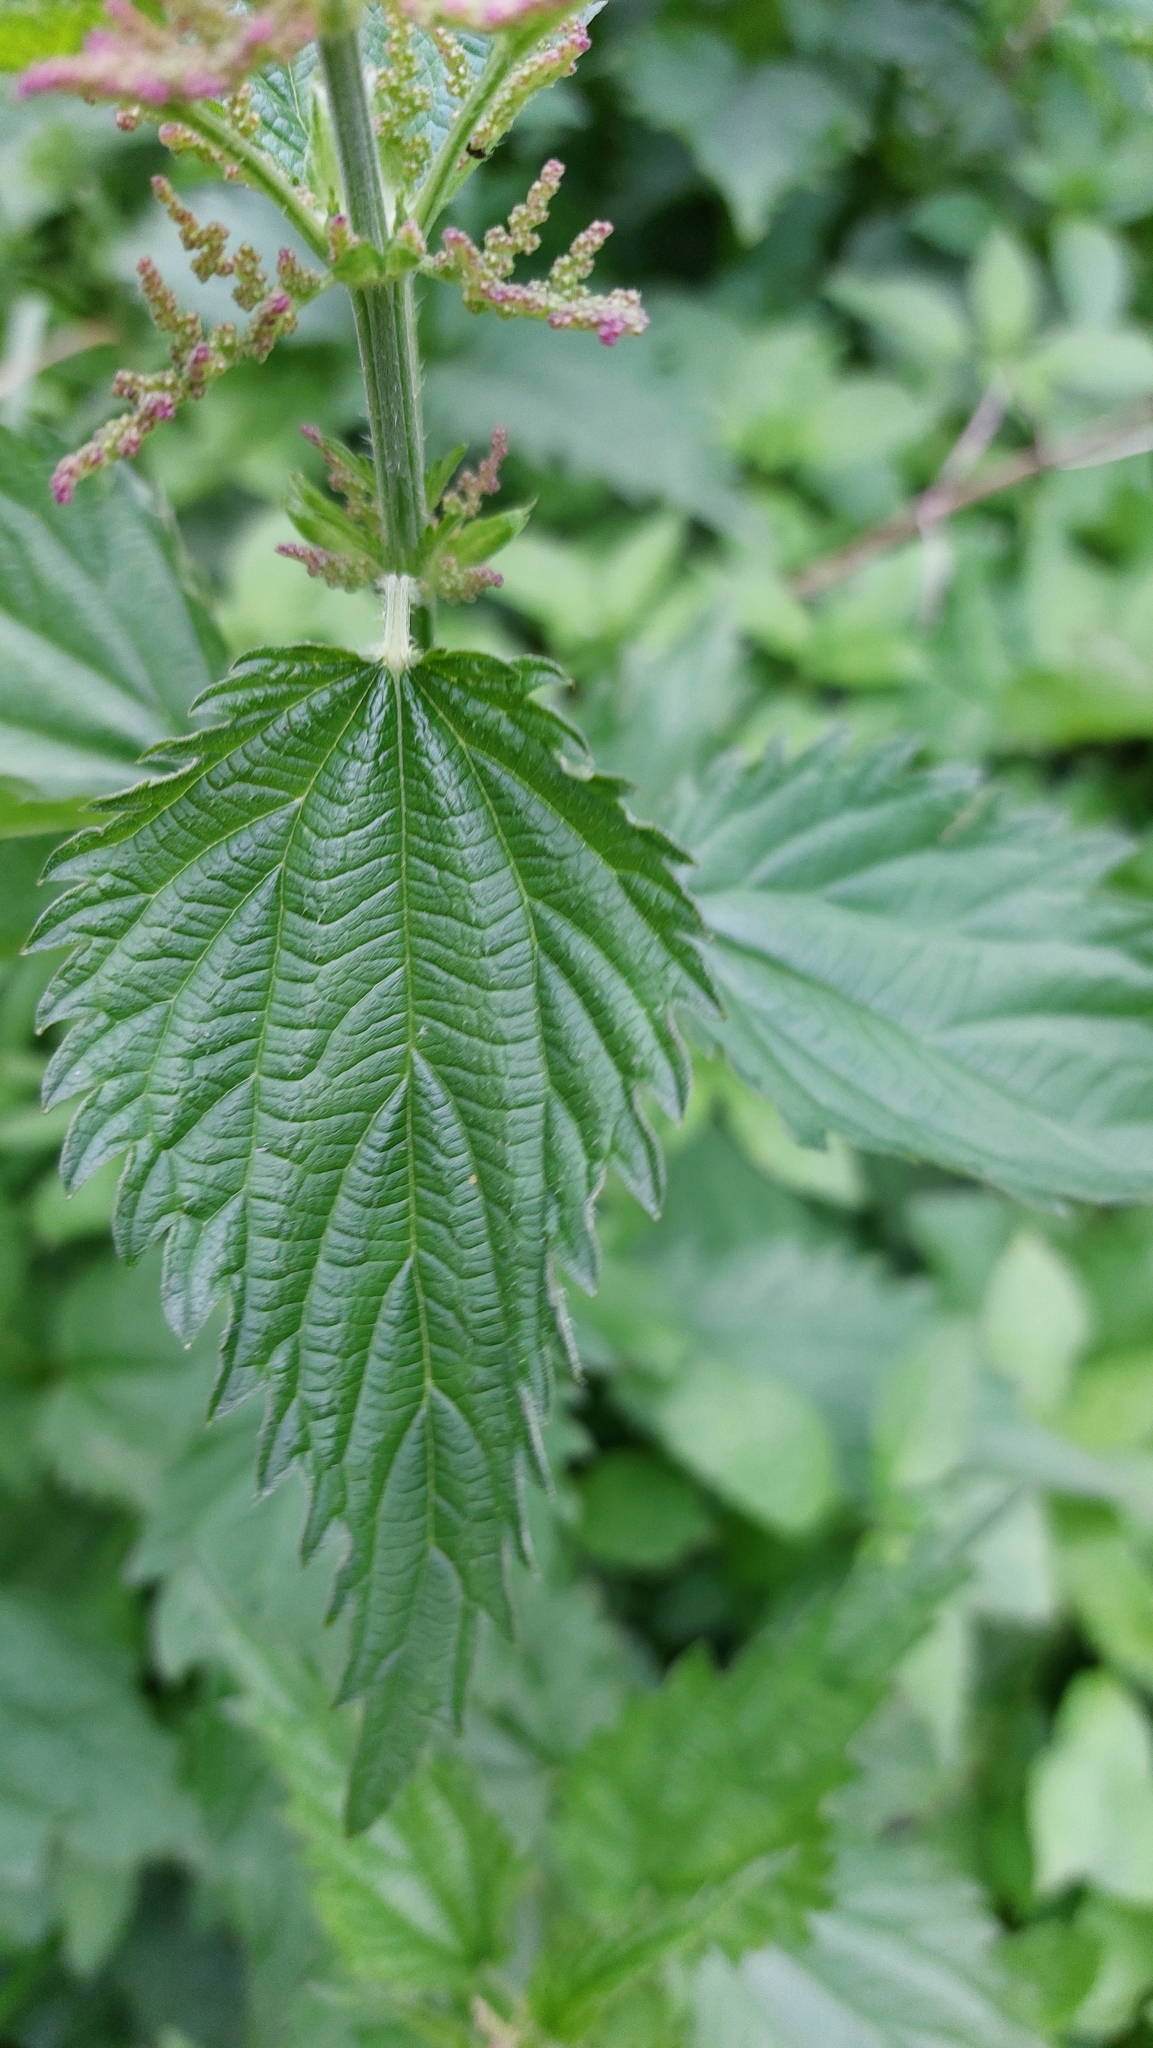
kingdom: Plantae
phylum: Tracheophyta
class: Magnoliopsida
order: Rosales
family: Urticaceae
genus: Urtica
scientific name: Urtica dioica
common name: Common nettle
